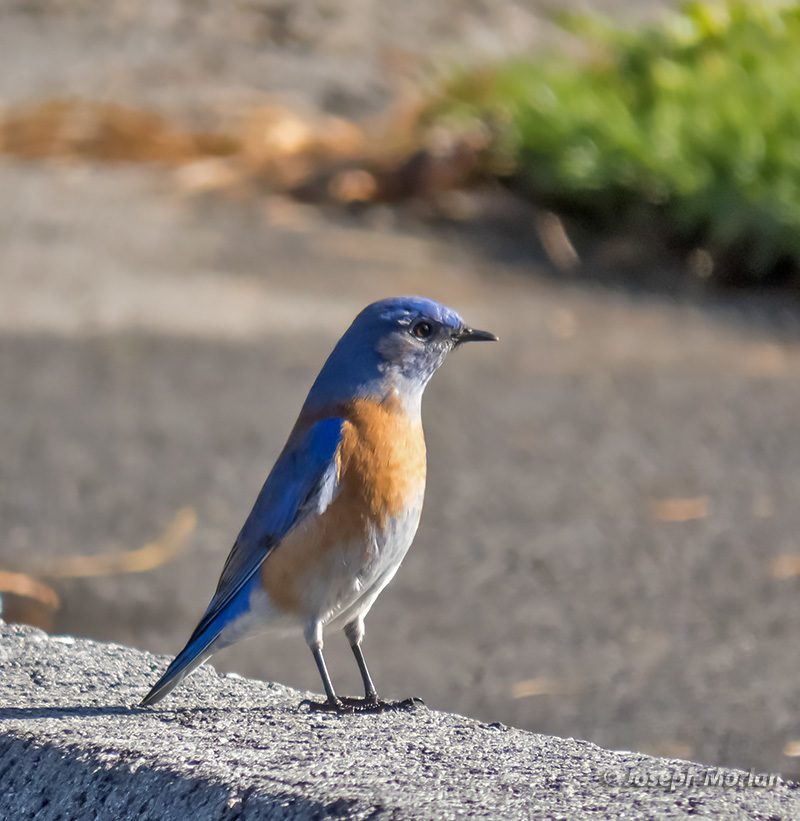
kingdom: Animalia
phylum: Chordata
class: Aves
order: Passeriformes
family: Turdidae
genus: Sialia
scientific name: Sialia mexicana
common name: Western bluebird
